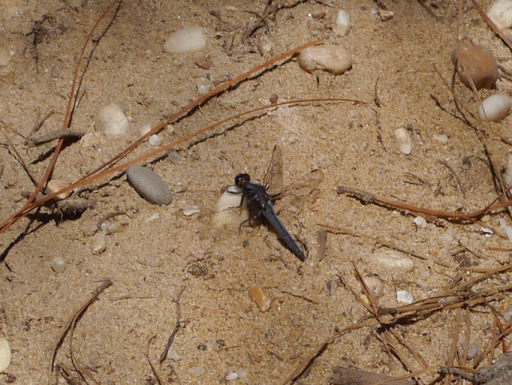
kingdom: Animalia
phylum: Arthropoda
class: Insecta
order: Odonata
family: Libellulidae
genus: Ladona
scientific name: Ladona deplanata
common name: Blue corporal
